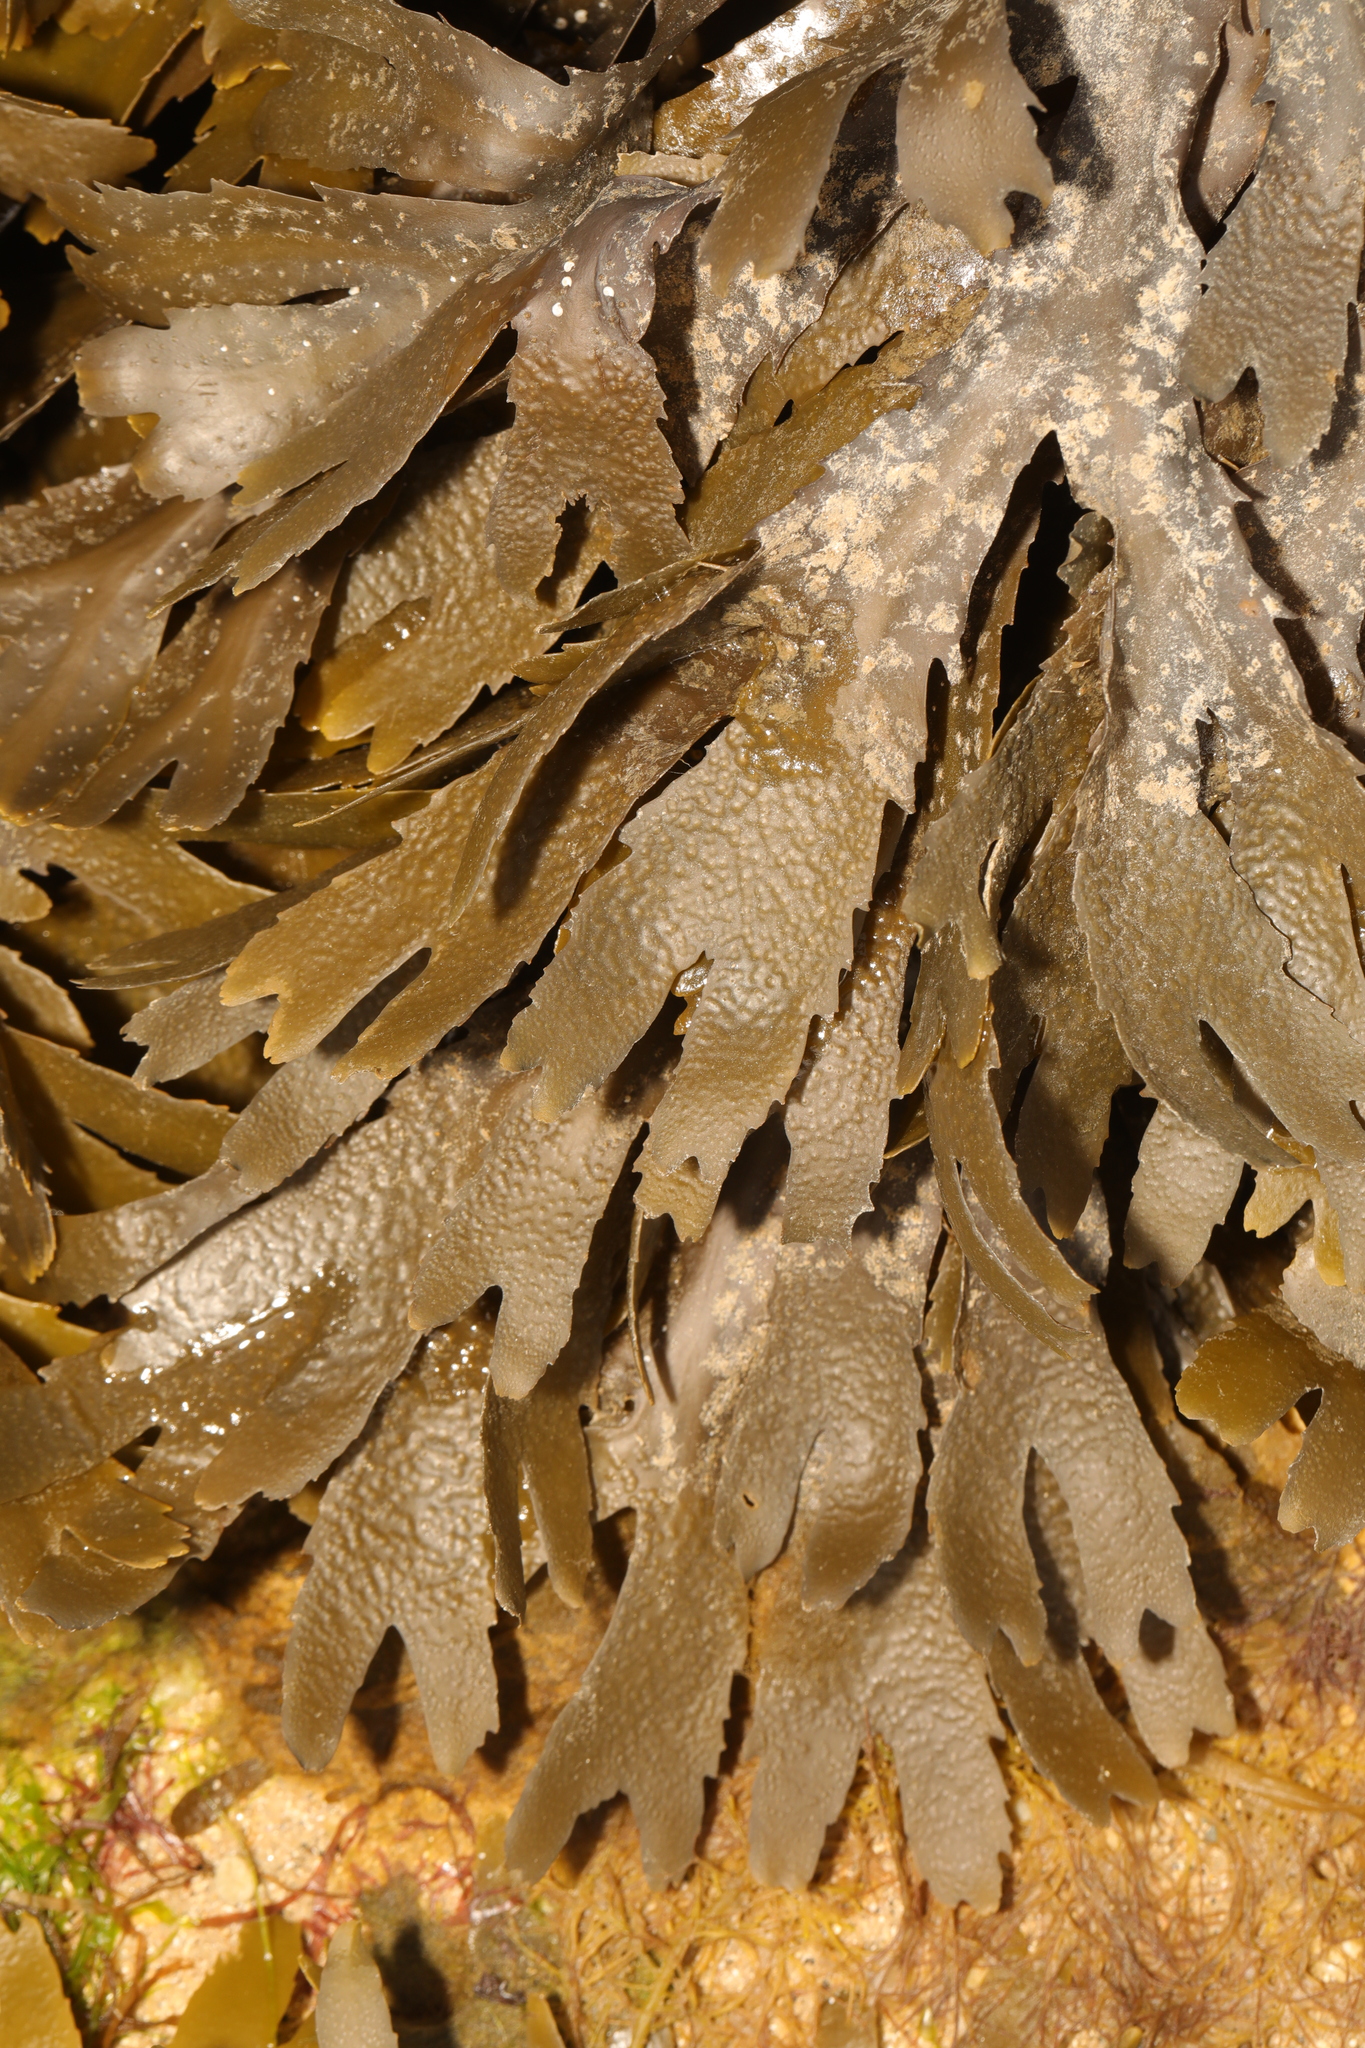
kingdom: Chromista
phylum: Ochrophyta
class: Phaeophyceae
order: Fucales
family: Fucaceae
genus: Fucus
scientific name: Fucus serratus
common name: Toothed wrack
